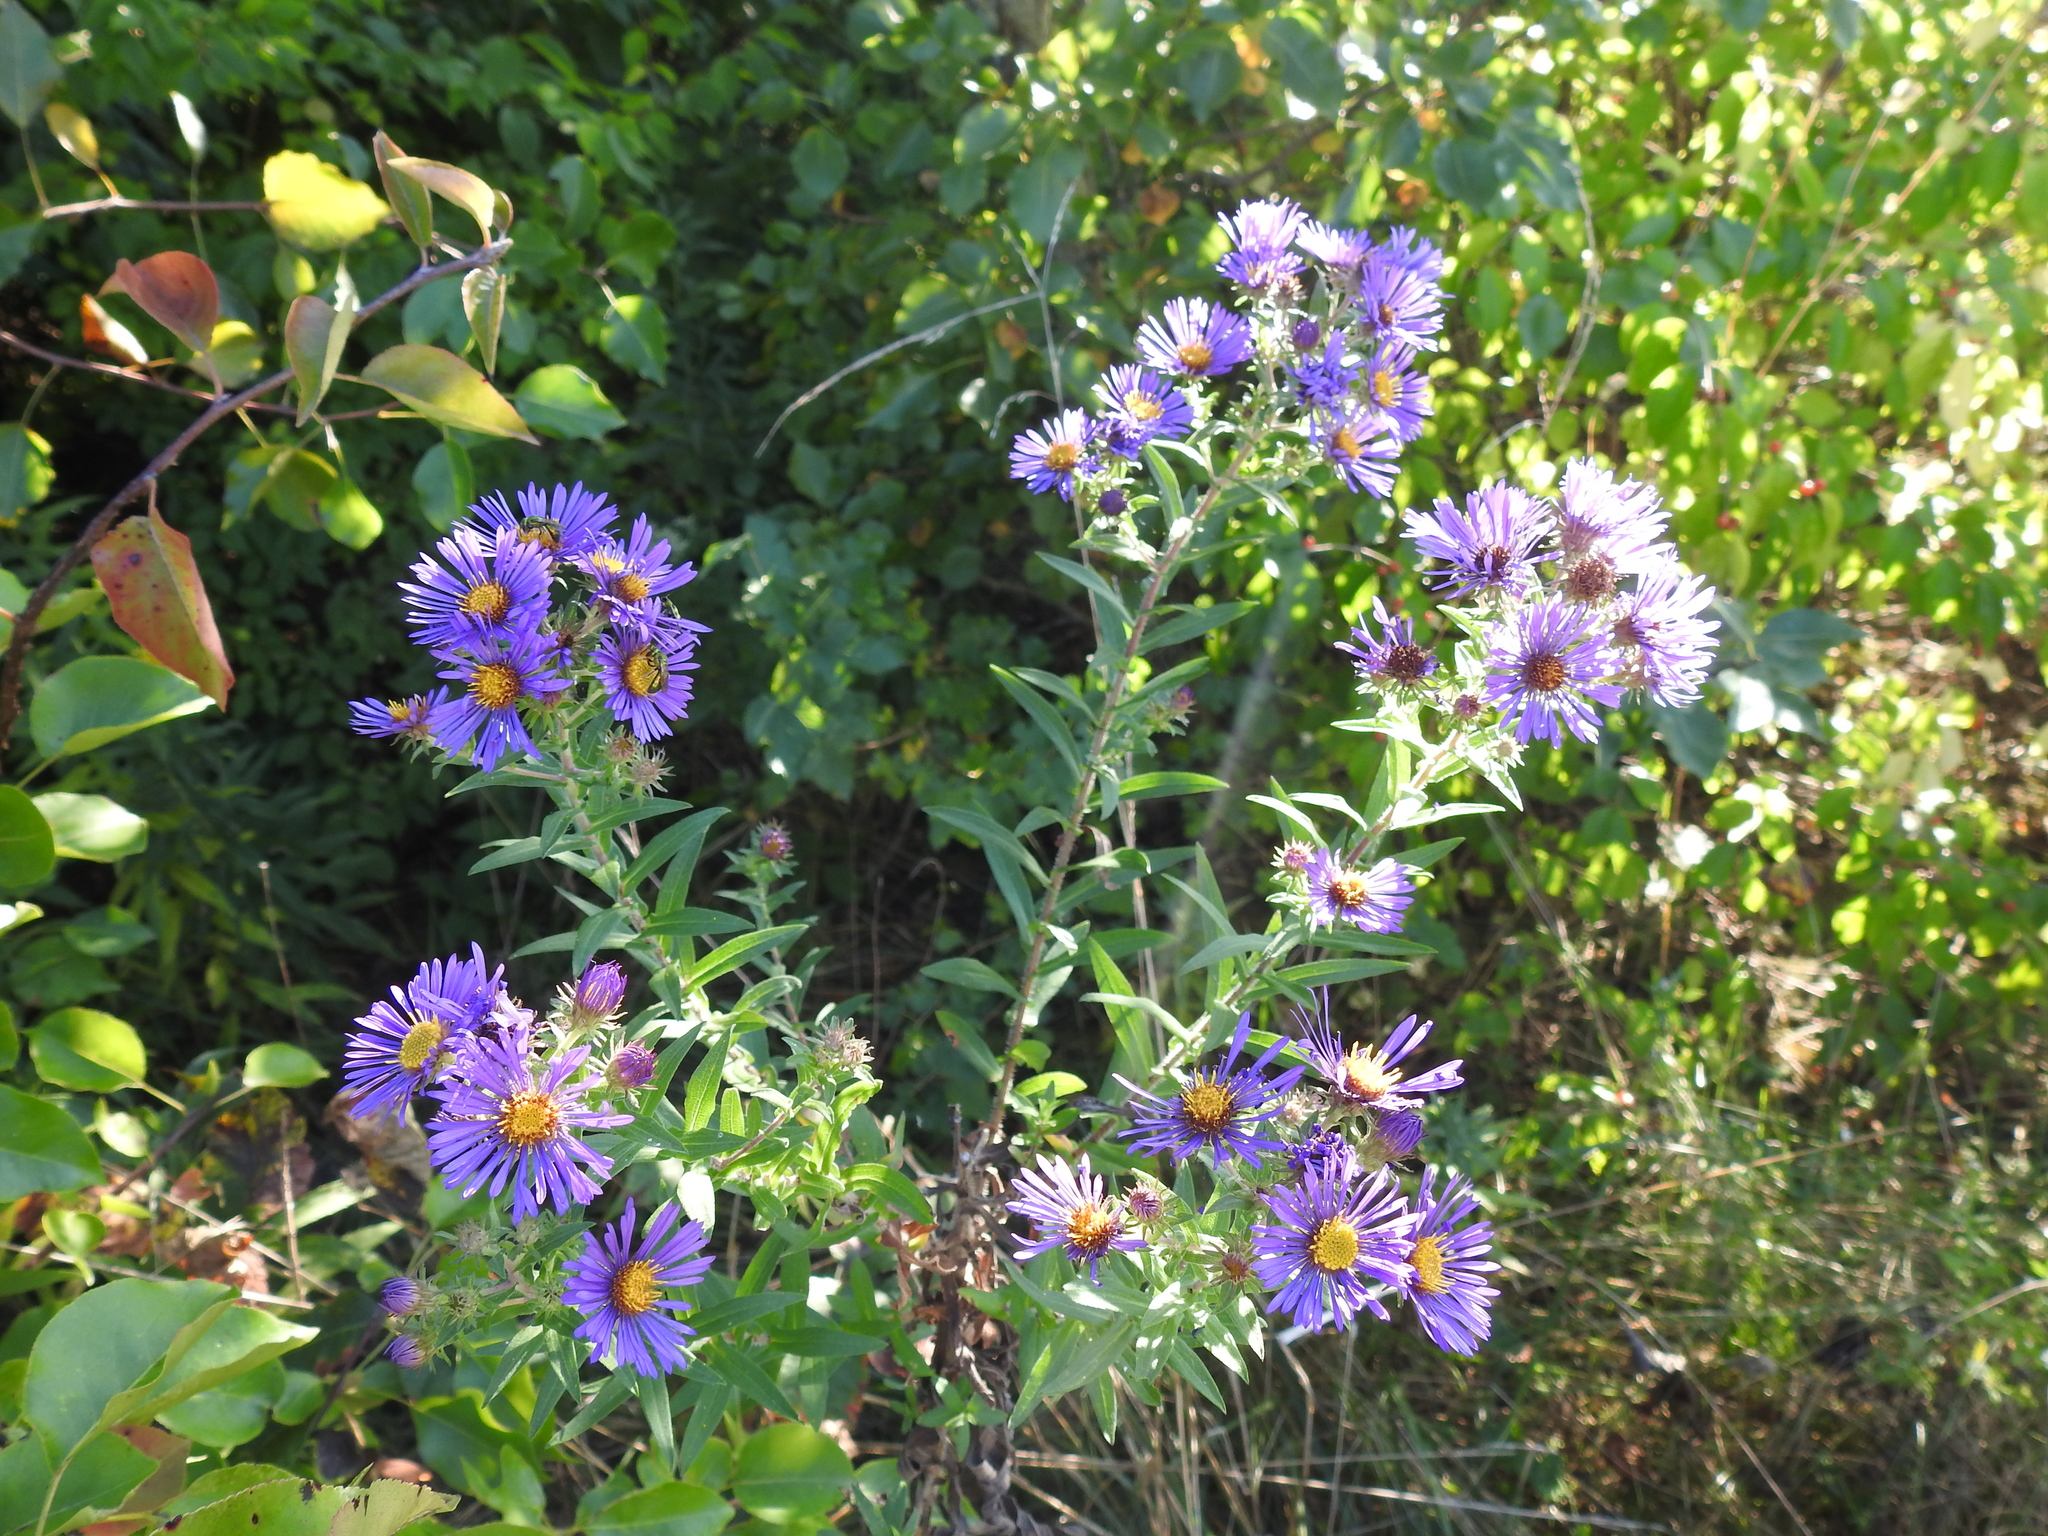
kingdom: Plantae
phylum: Tracheophyta
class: Magnoliopsida
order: Asterales
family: Asteraceae
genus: Symphyotrichum
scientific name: Symphyotrichum novae-angliae
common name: Michaelmas daisy
